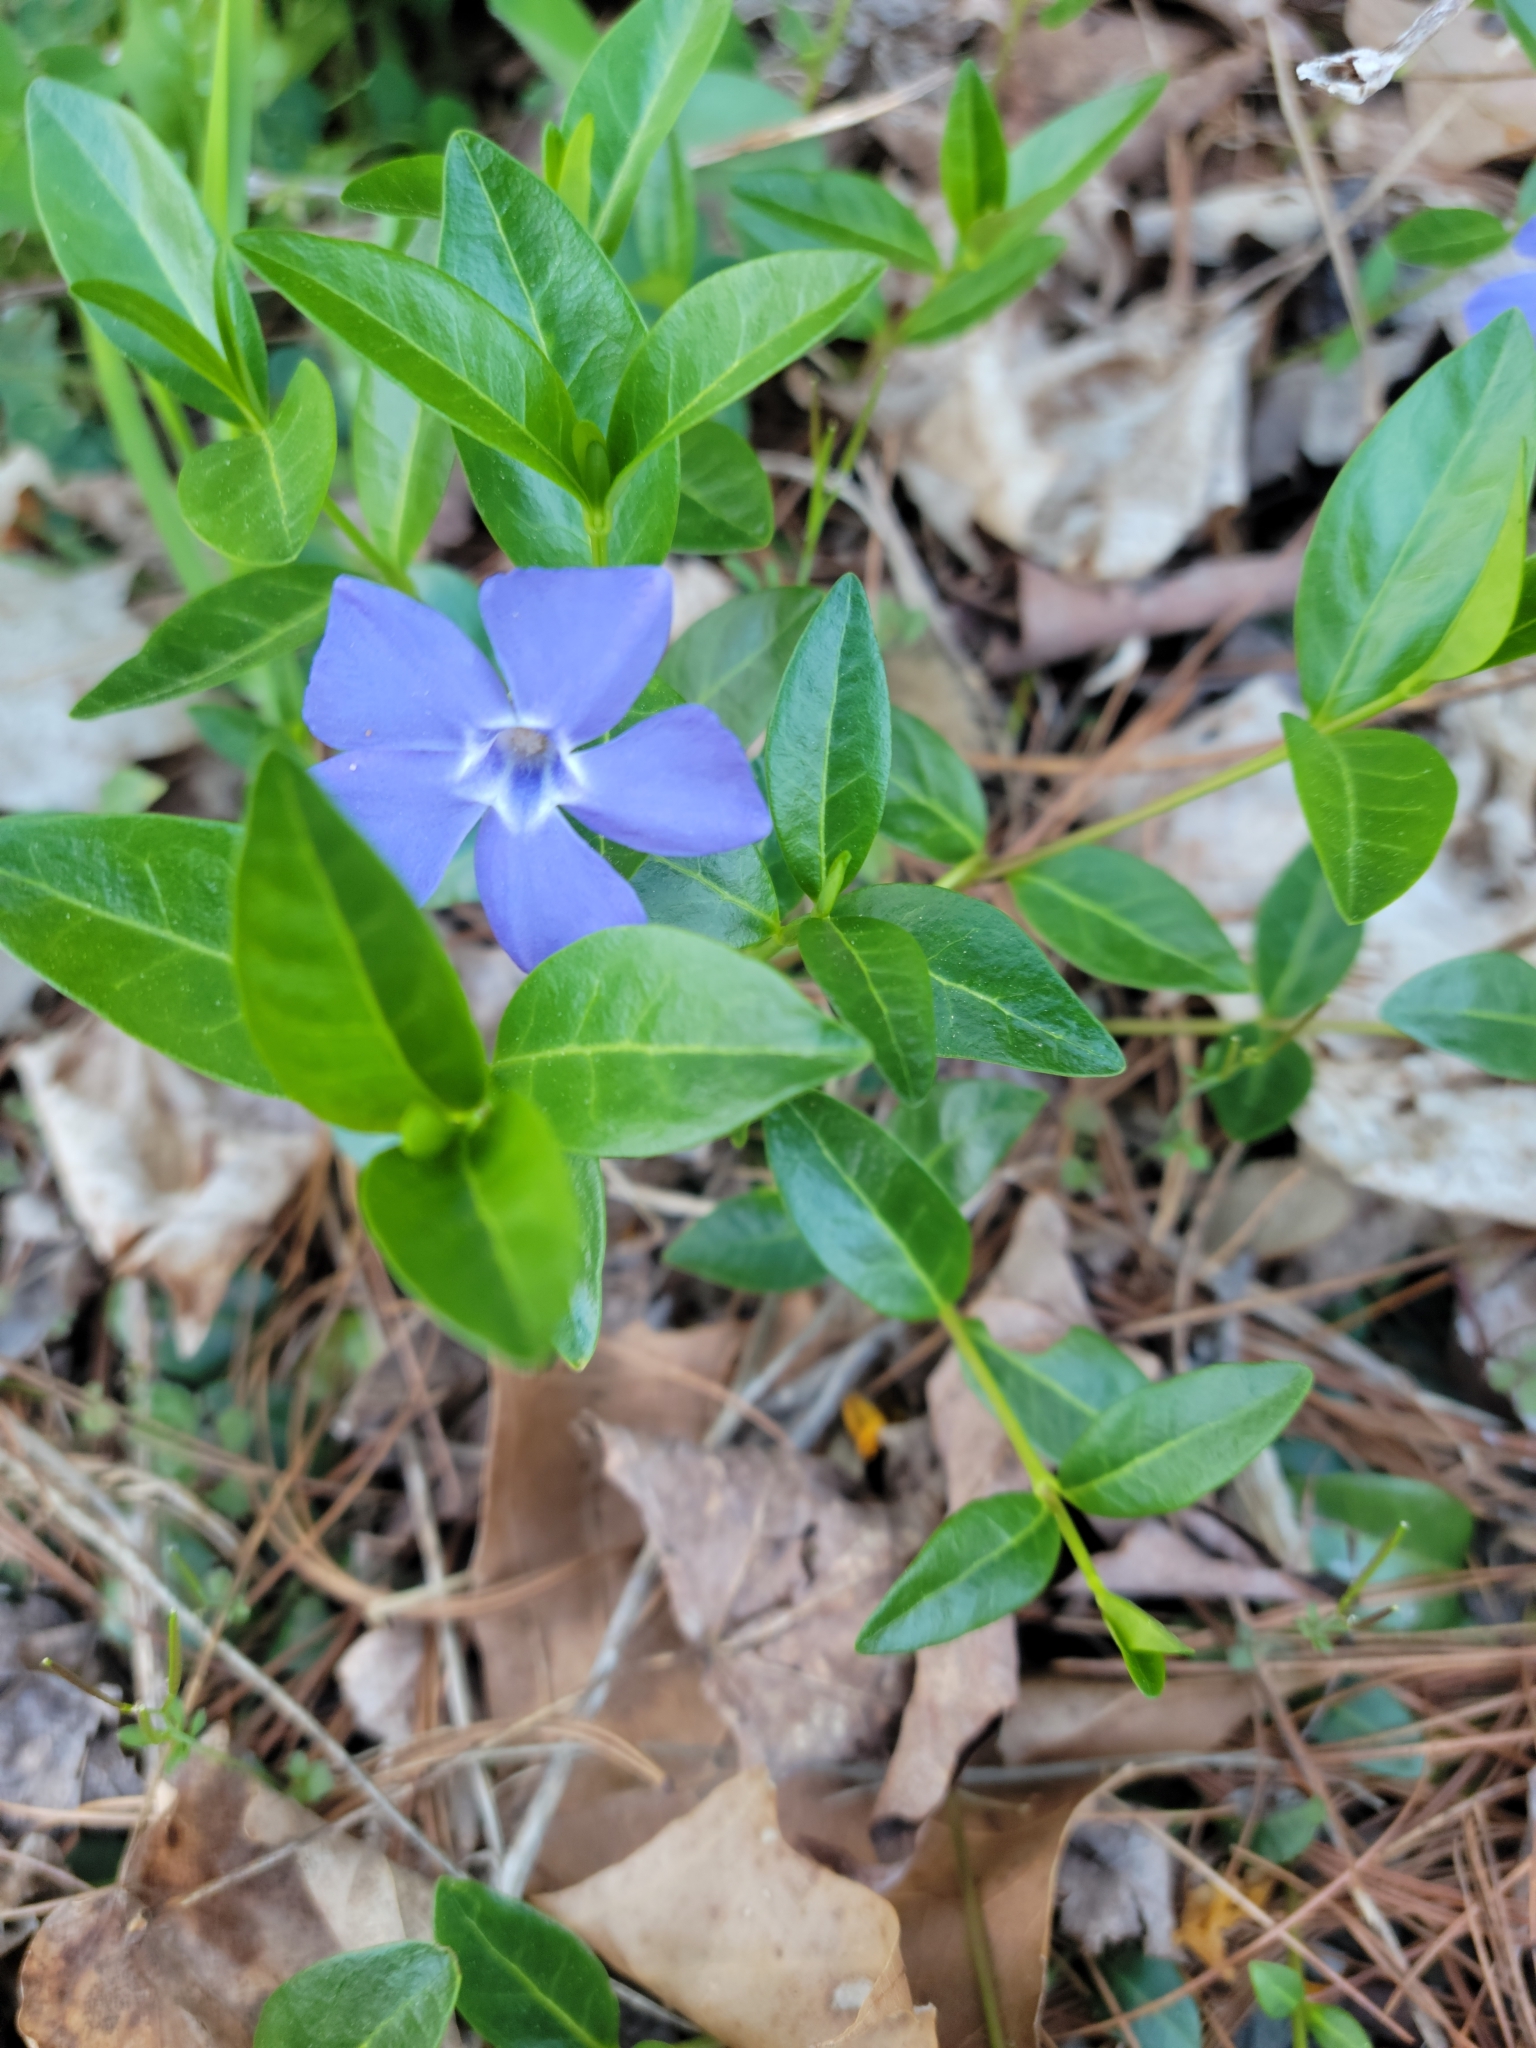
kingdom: Plantae
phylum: Tracheophyta
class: Magnoliopsida
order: Gentianales
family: Apocynaceae
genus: Vinca
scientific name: Vinca minor
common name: Lesser periwinkle
